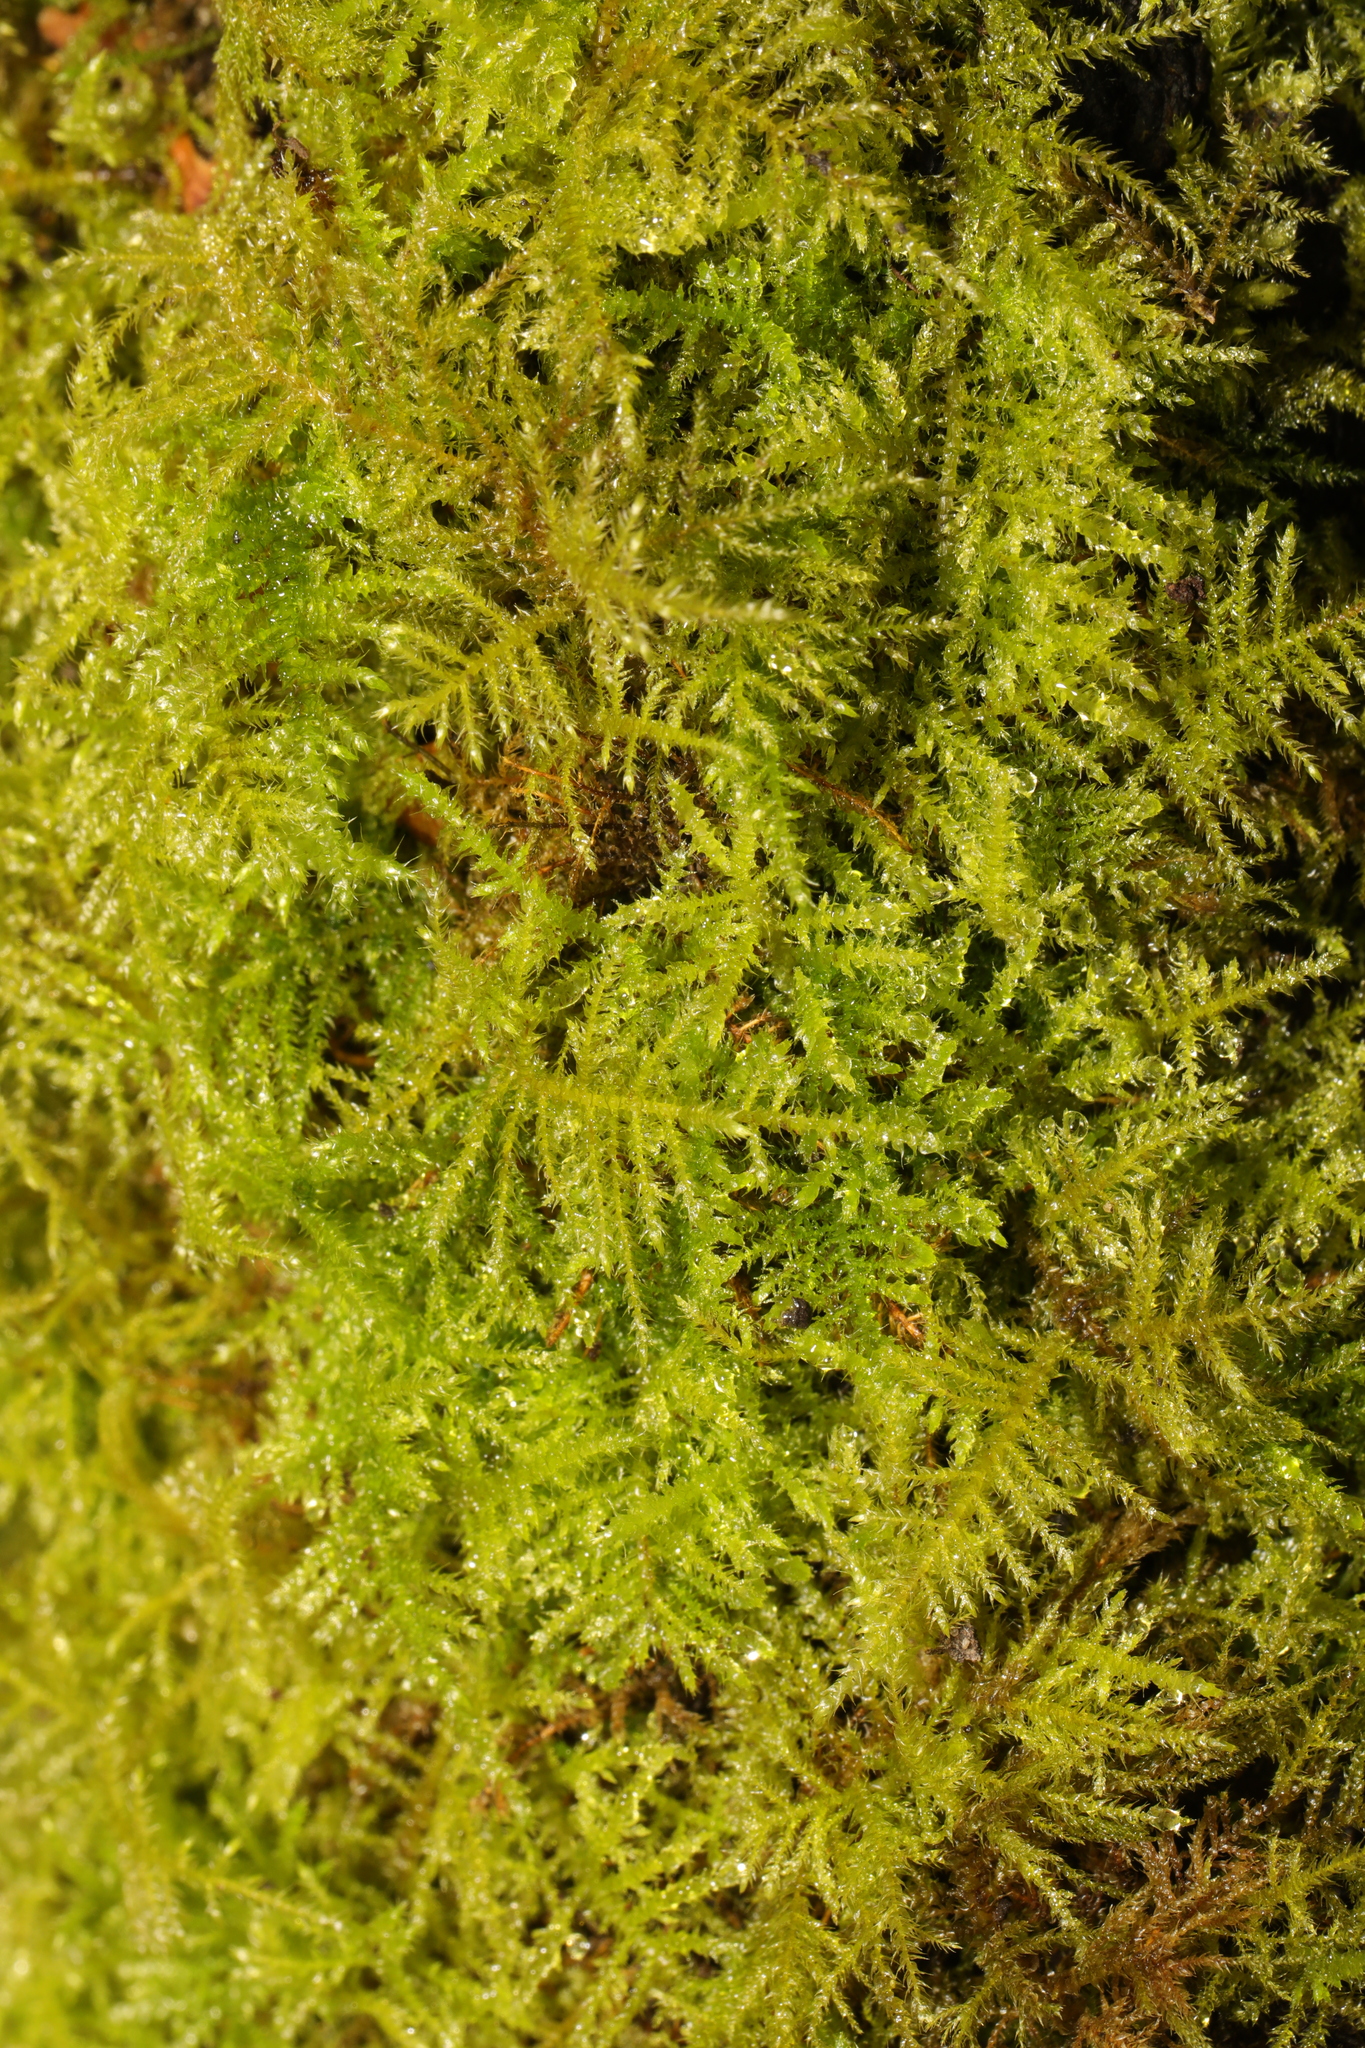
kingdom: Plantae
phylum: Bryophyta
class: Bryopsida
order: Hypnales
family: Brachytheciaceae
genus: Kindbergia
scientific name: Kindbergia praelonga
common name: Slender beaked moss
